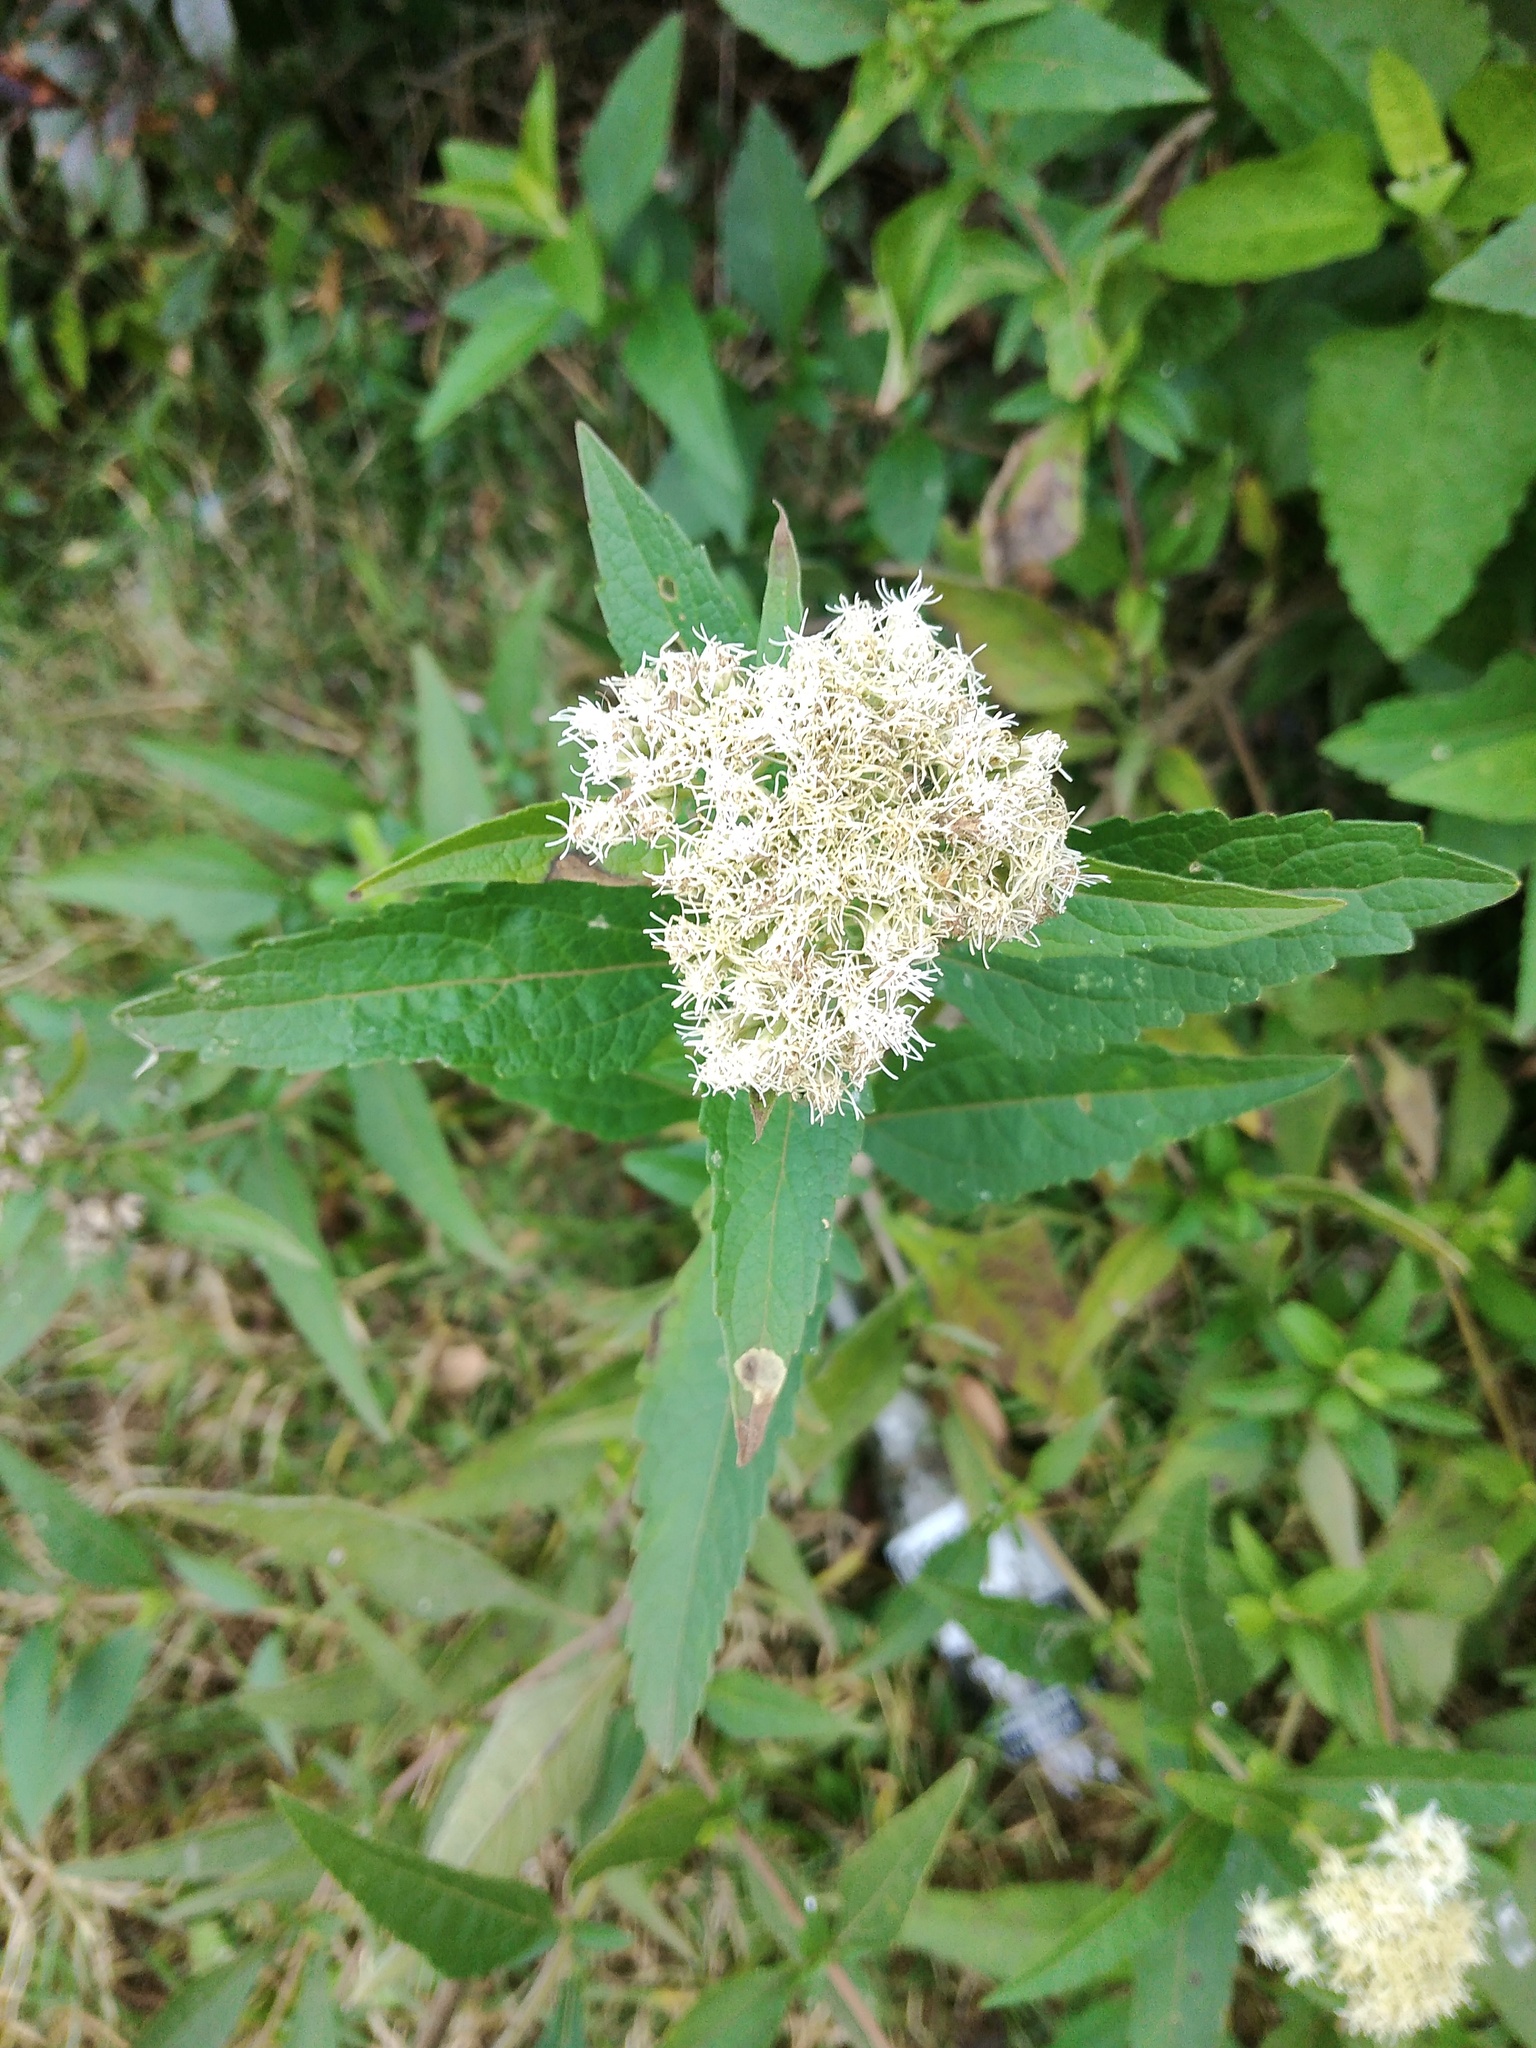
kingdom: Plantae
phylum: Tracheophyta
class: Magnoliopsida
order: Asterales
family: Asteraceae
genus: Austroeupatorium
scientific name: Austroeupatorium inulifolium
